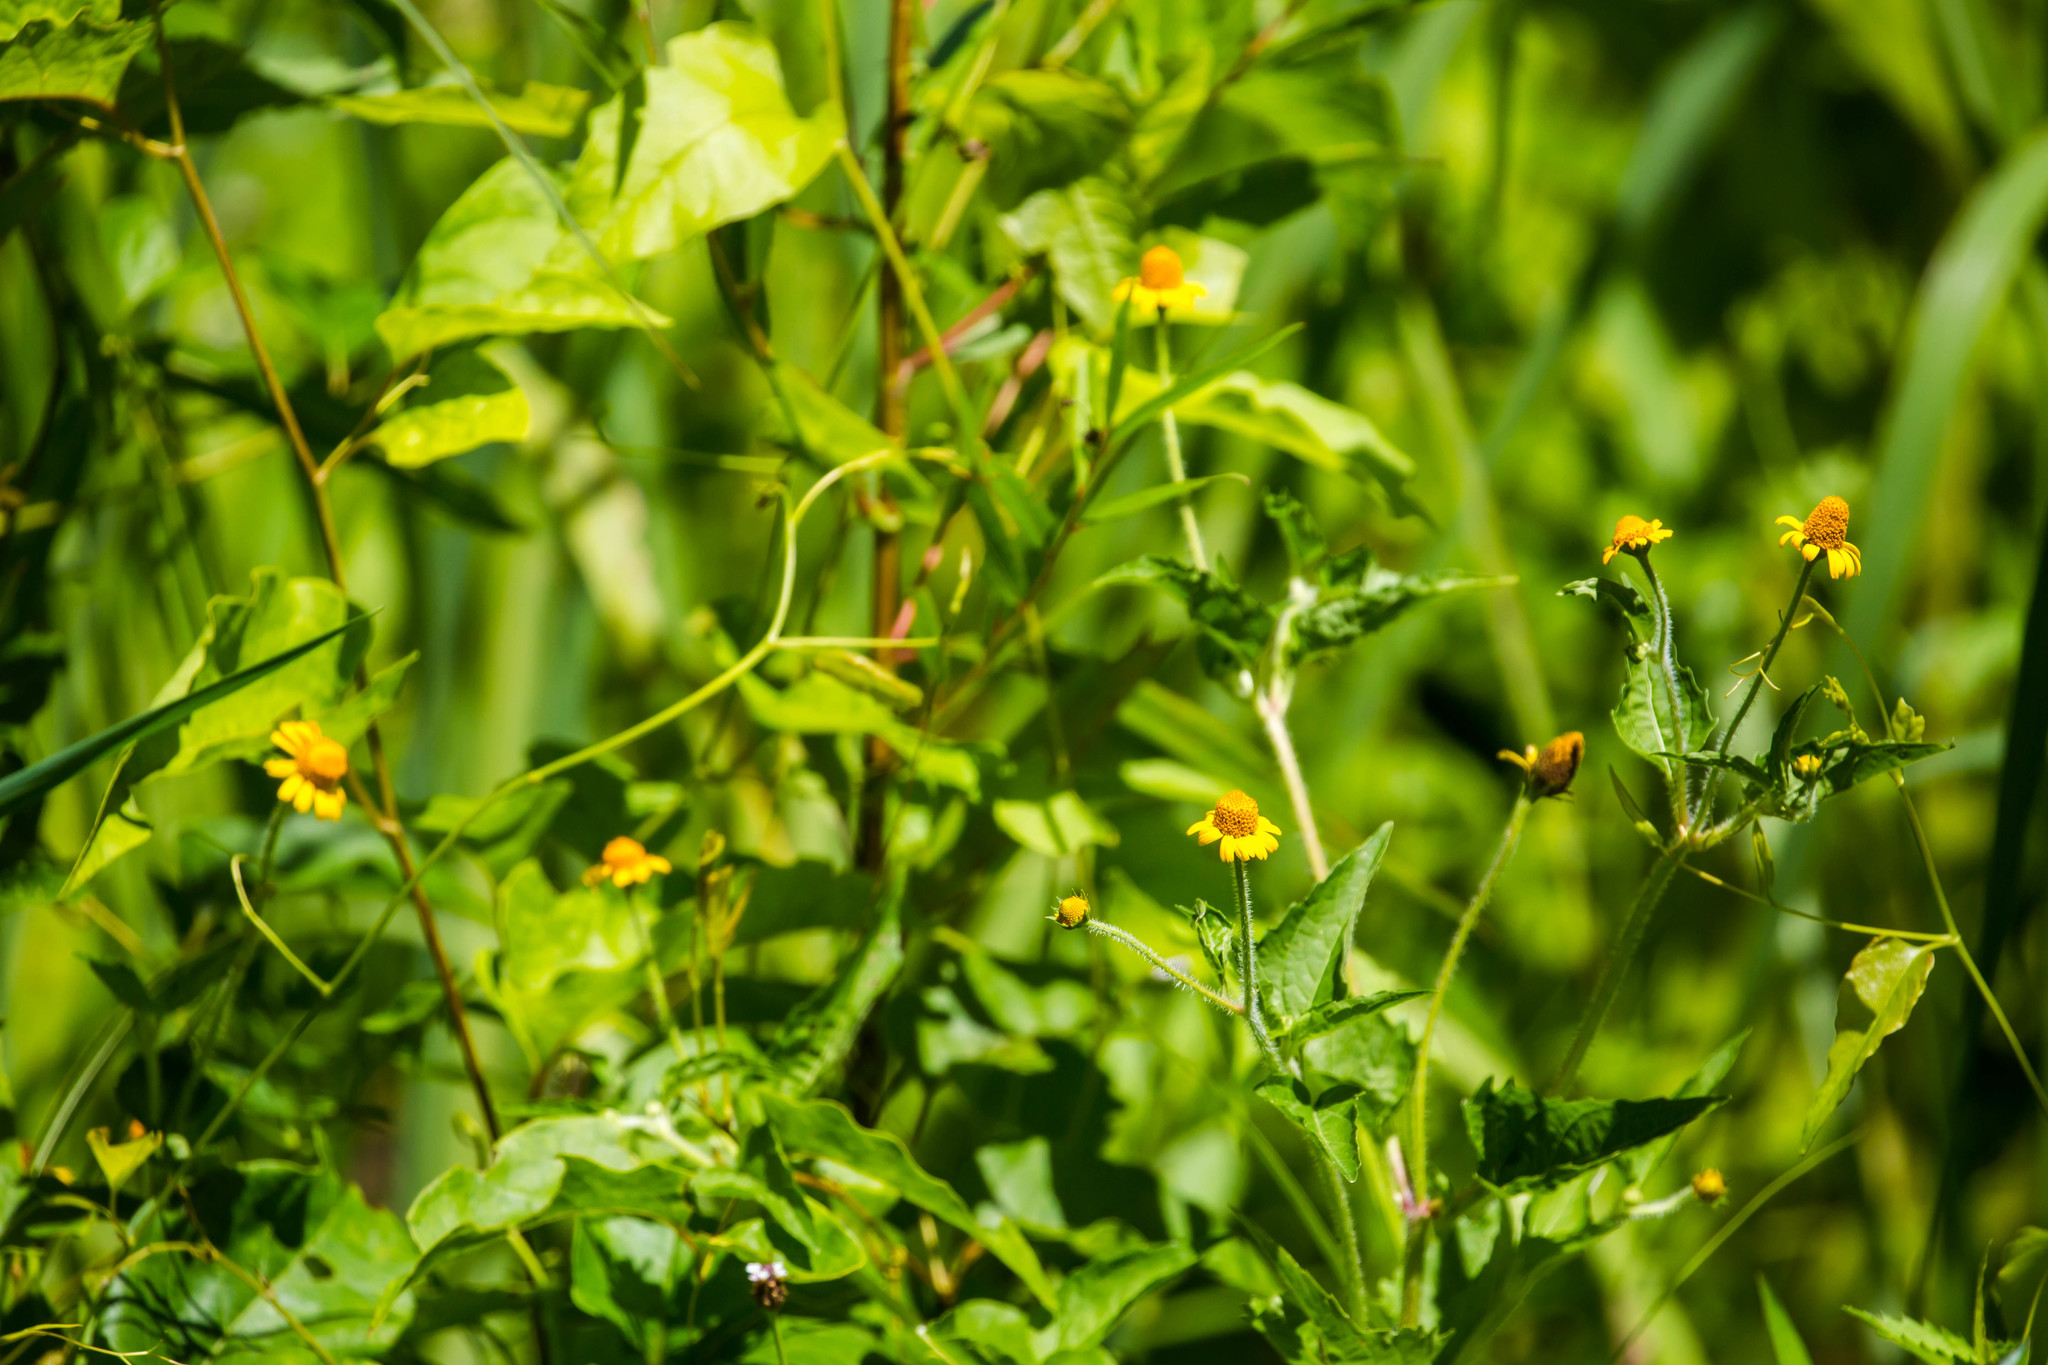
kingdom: Plantae
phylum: Tracheophyta
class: Magnoliopsida
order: Asterales
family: Asteraceae
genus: Acmella
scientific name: Acmella repens
